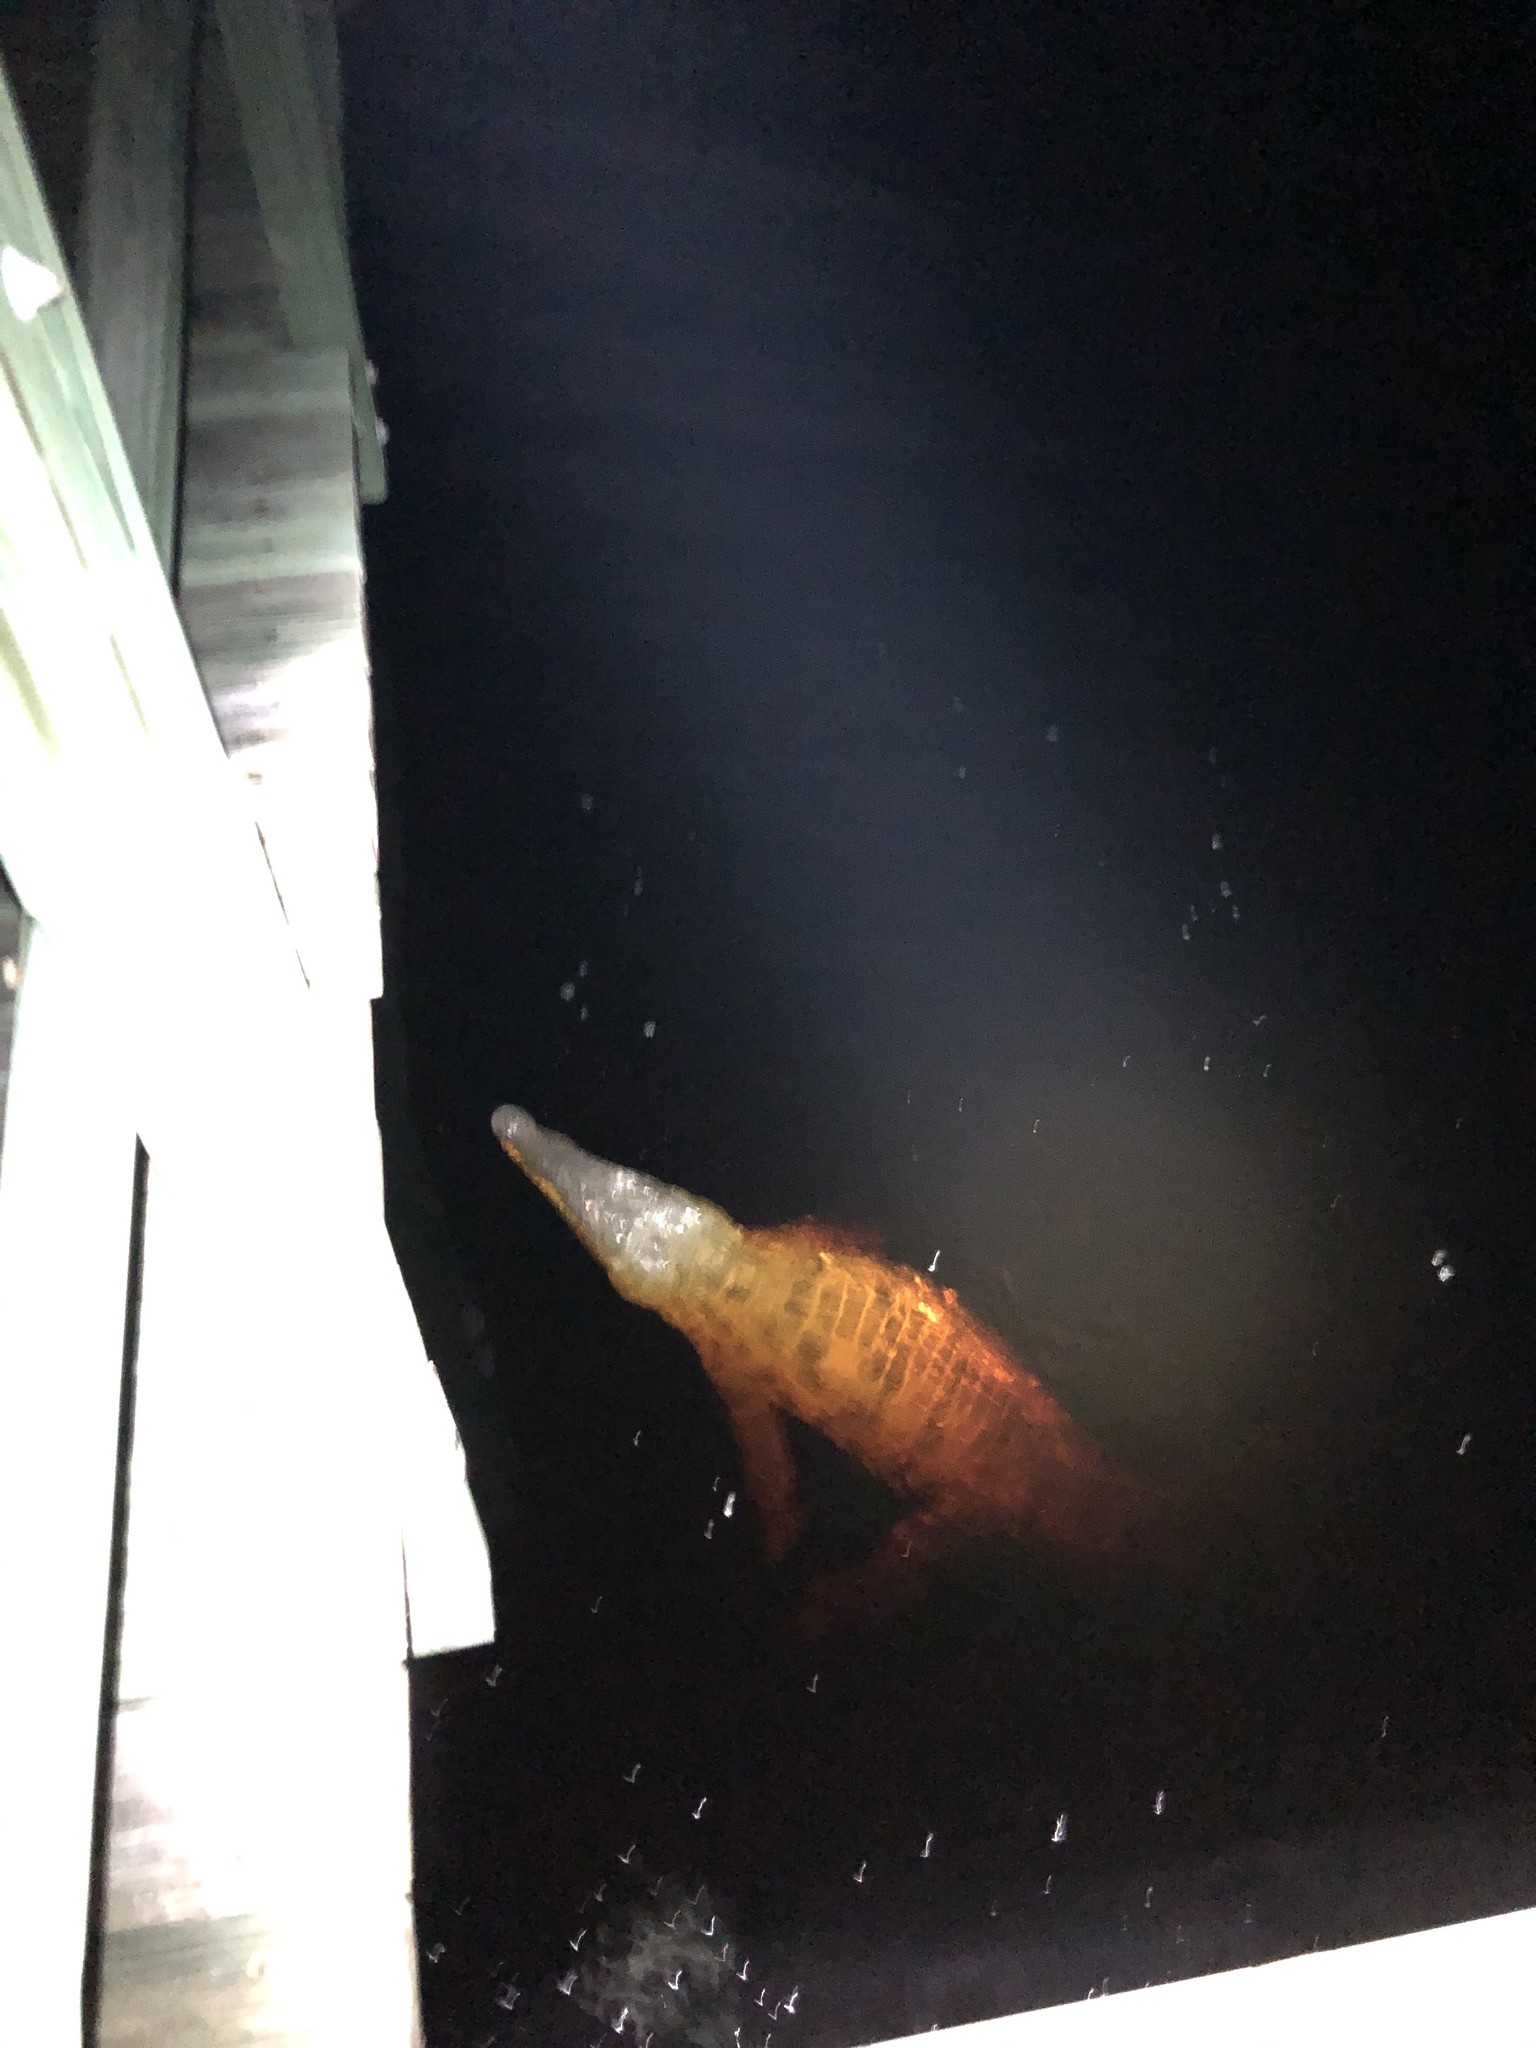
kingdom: Animalia
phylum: Chordata
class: Crocodylia
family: Crocodylidae
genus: Crocodylus
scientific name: Crocodylus acutus
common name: American crocodile
